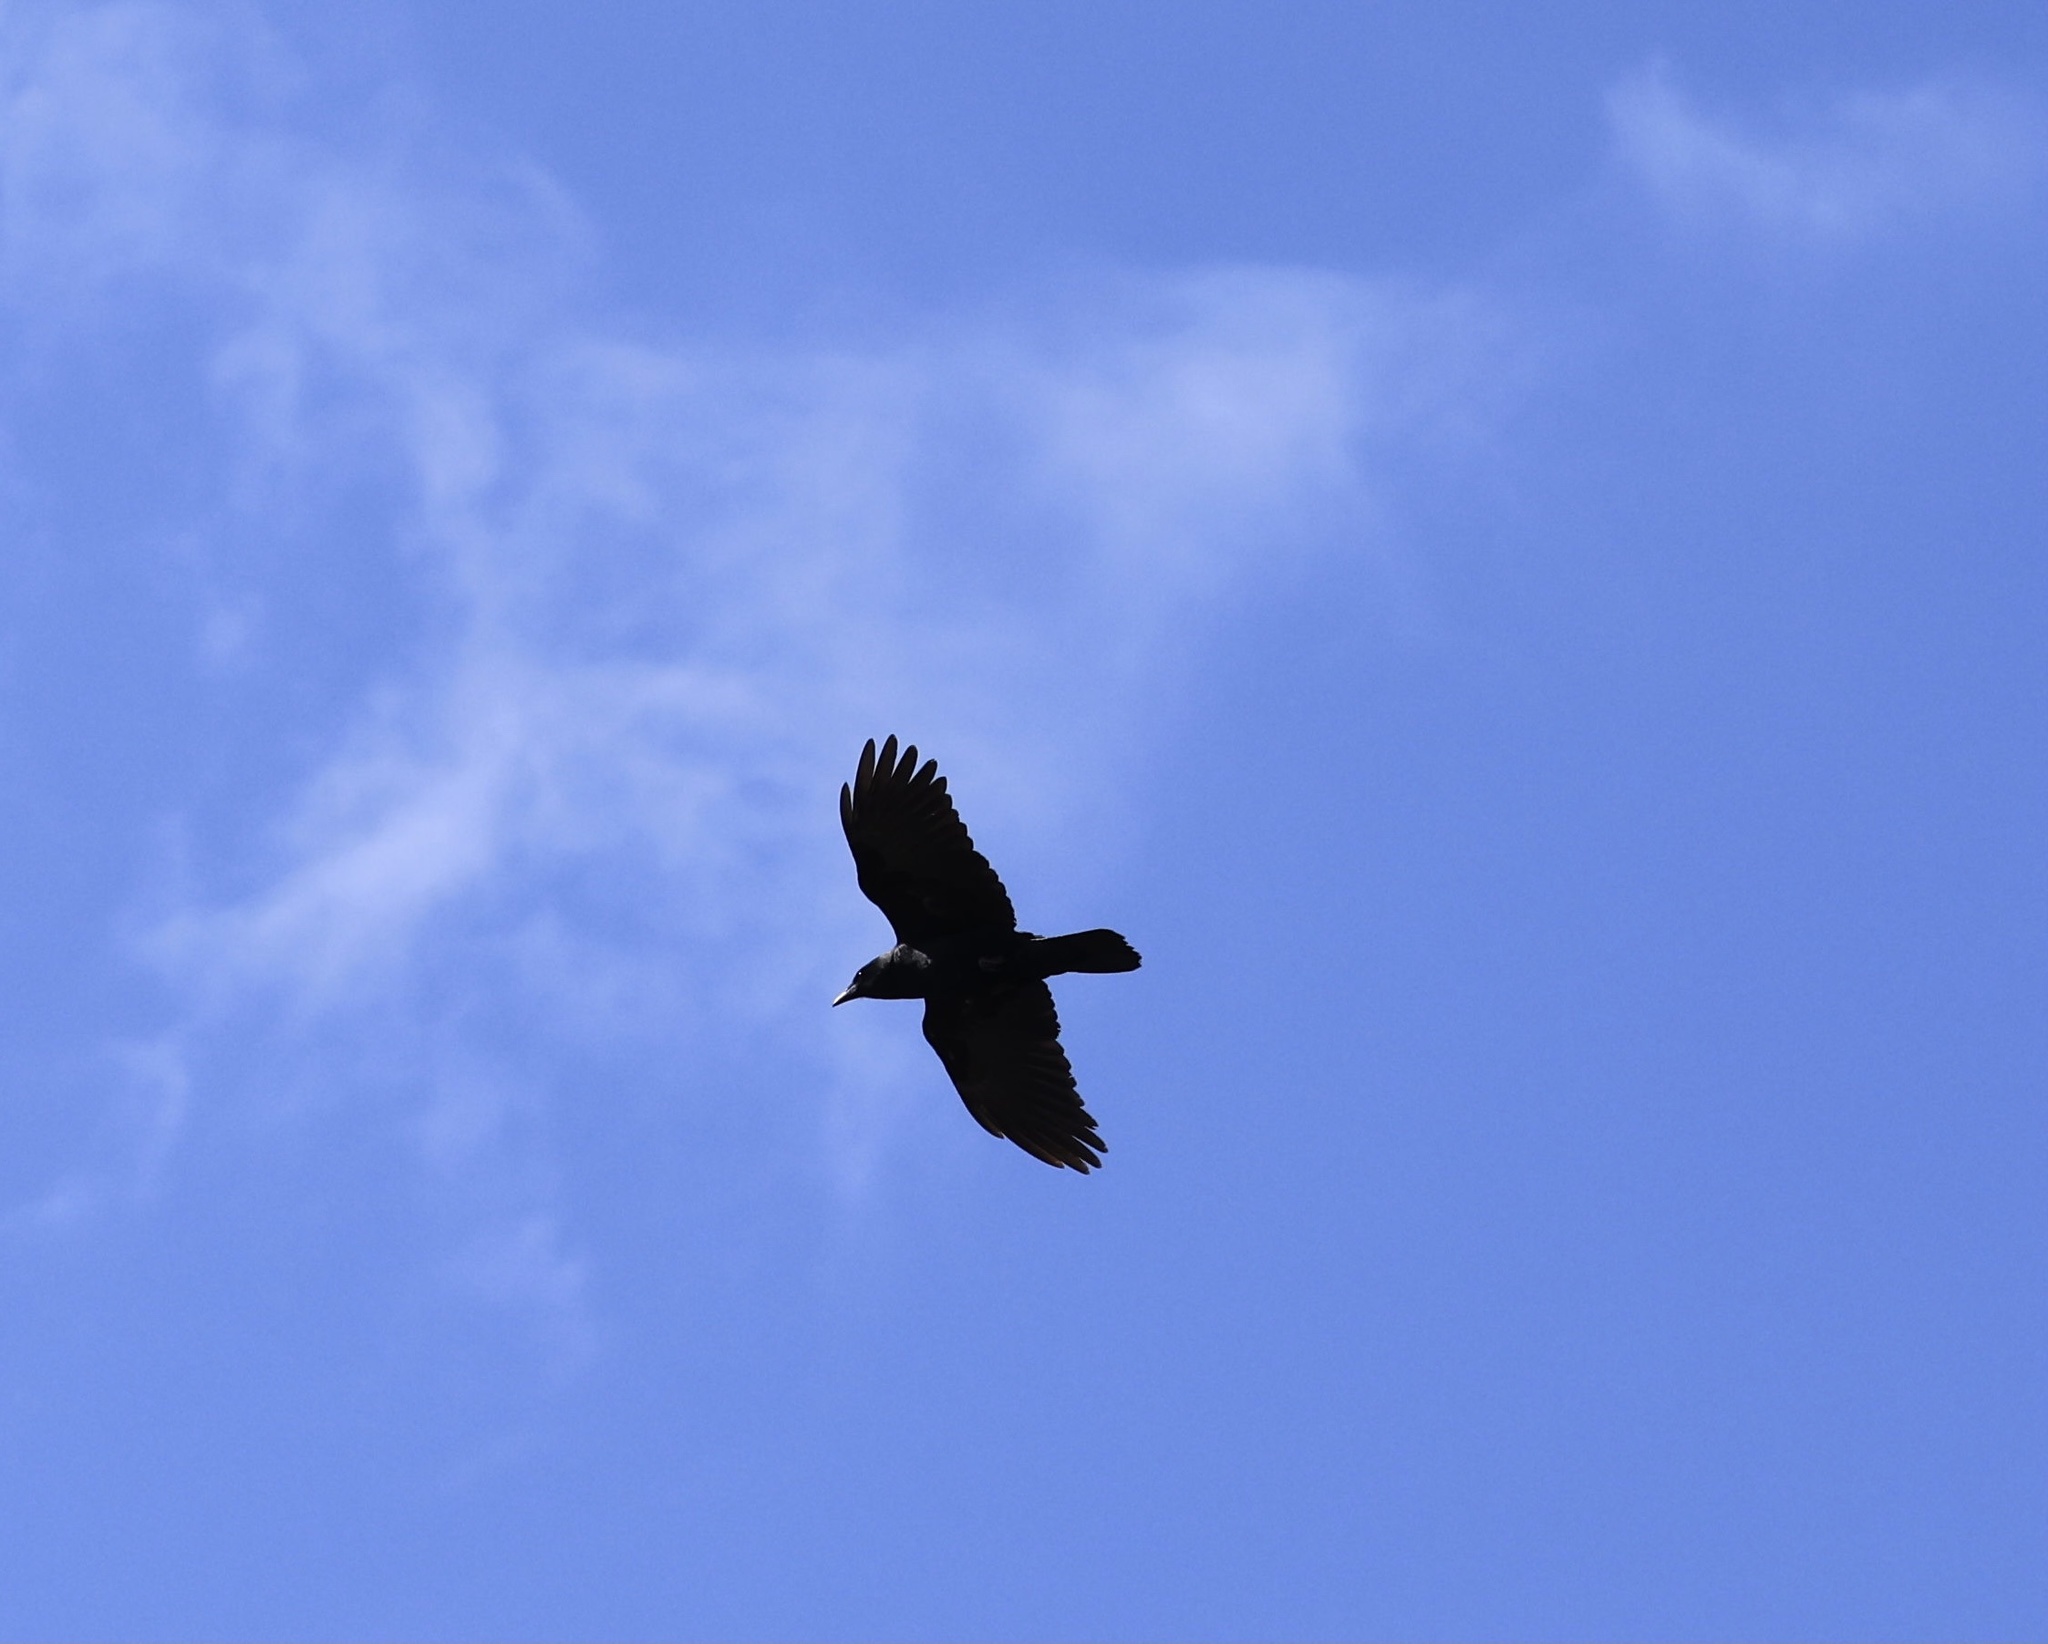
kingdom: Animalia
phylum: Chordata
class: Aves
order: Passeriformes
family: Corvidae
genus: Corvus
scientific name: Corvus
